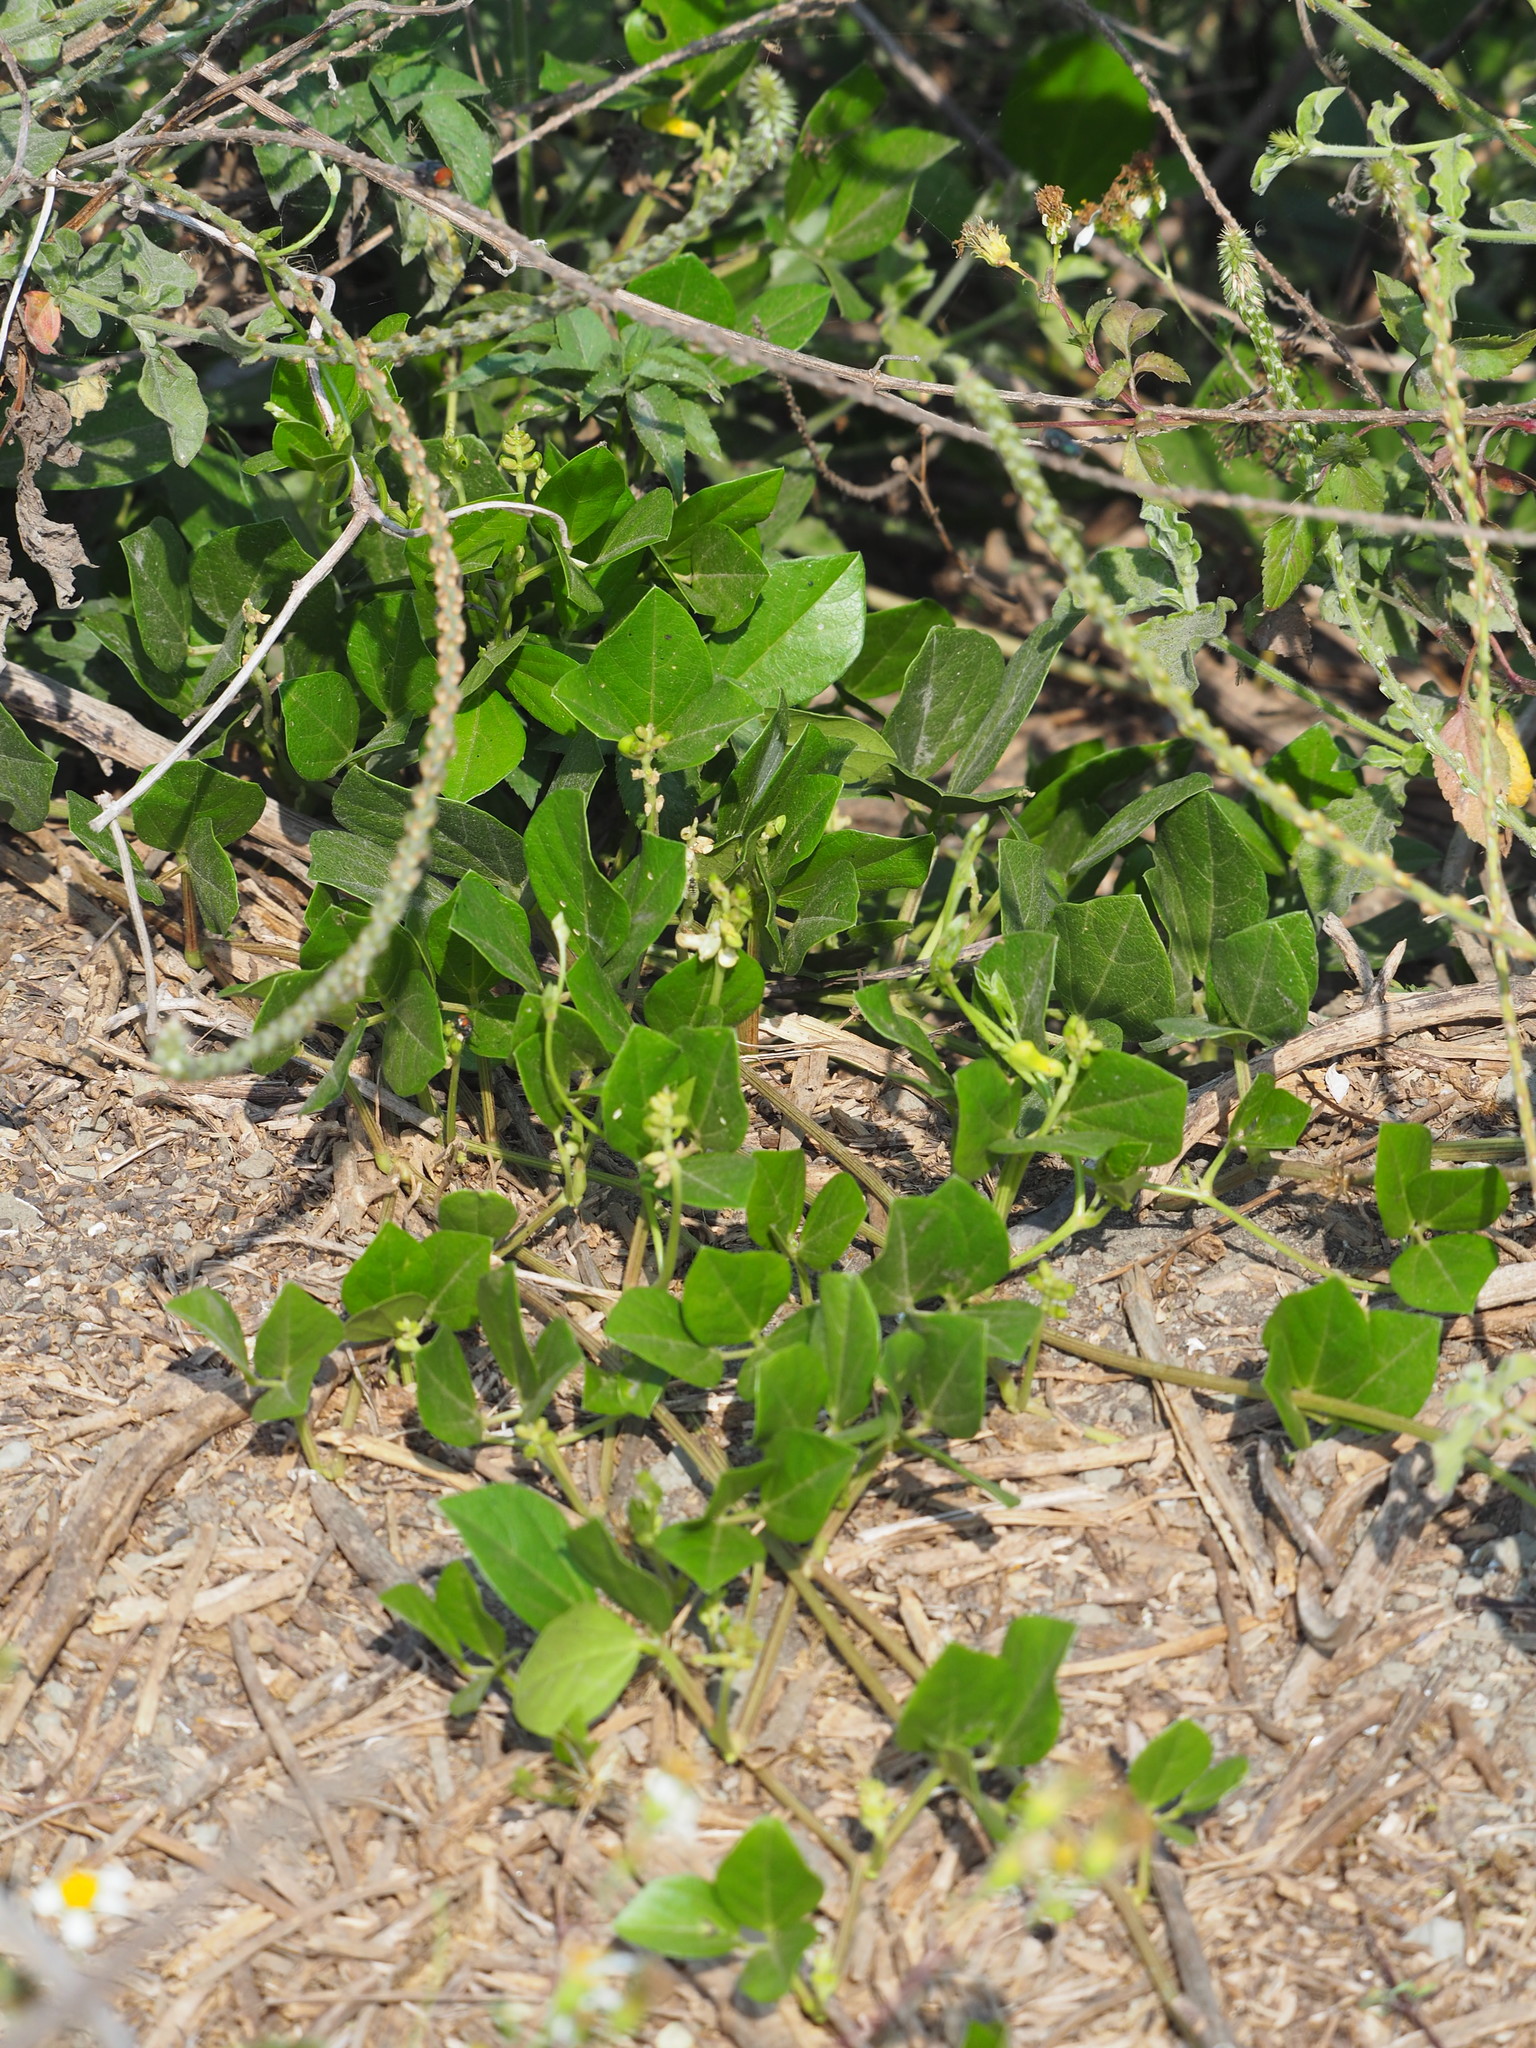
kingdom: Plantae
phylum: Tracheophyta
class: Magnoliopsida
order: Fabales
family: Fabaceae
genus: Vigna
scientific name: Vigna marina
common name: Dune-bean
